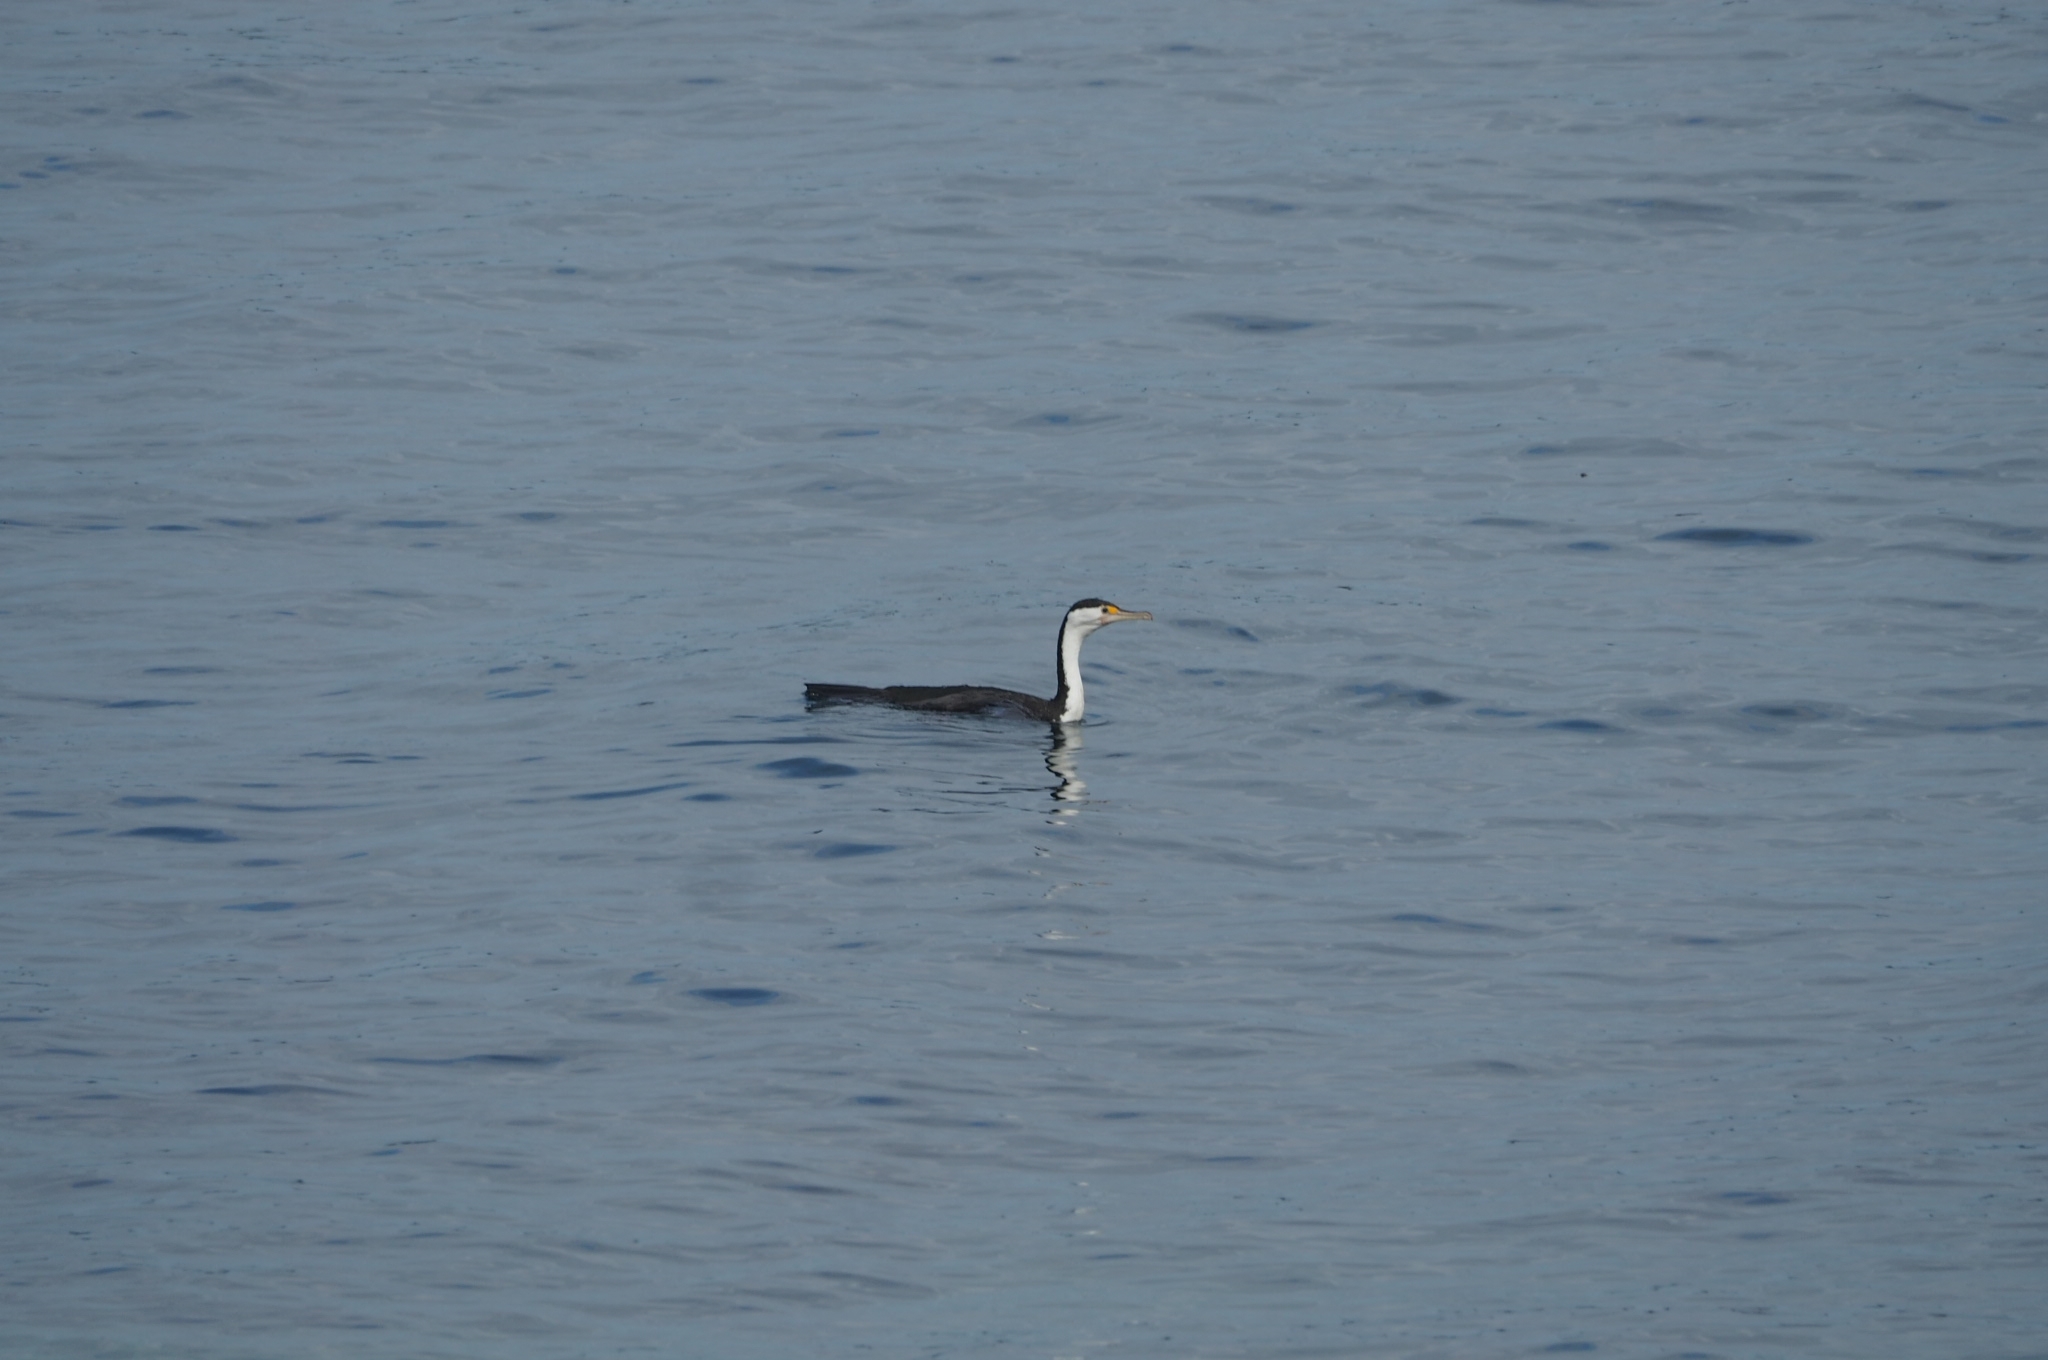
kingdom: Animalia
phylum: Chordata
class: Aves
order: Suliformes
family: Phalacrocoracidae
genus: Phalacrocorax
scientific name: Phalacrocorax varius
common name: Pied cormorant
